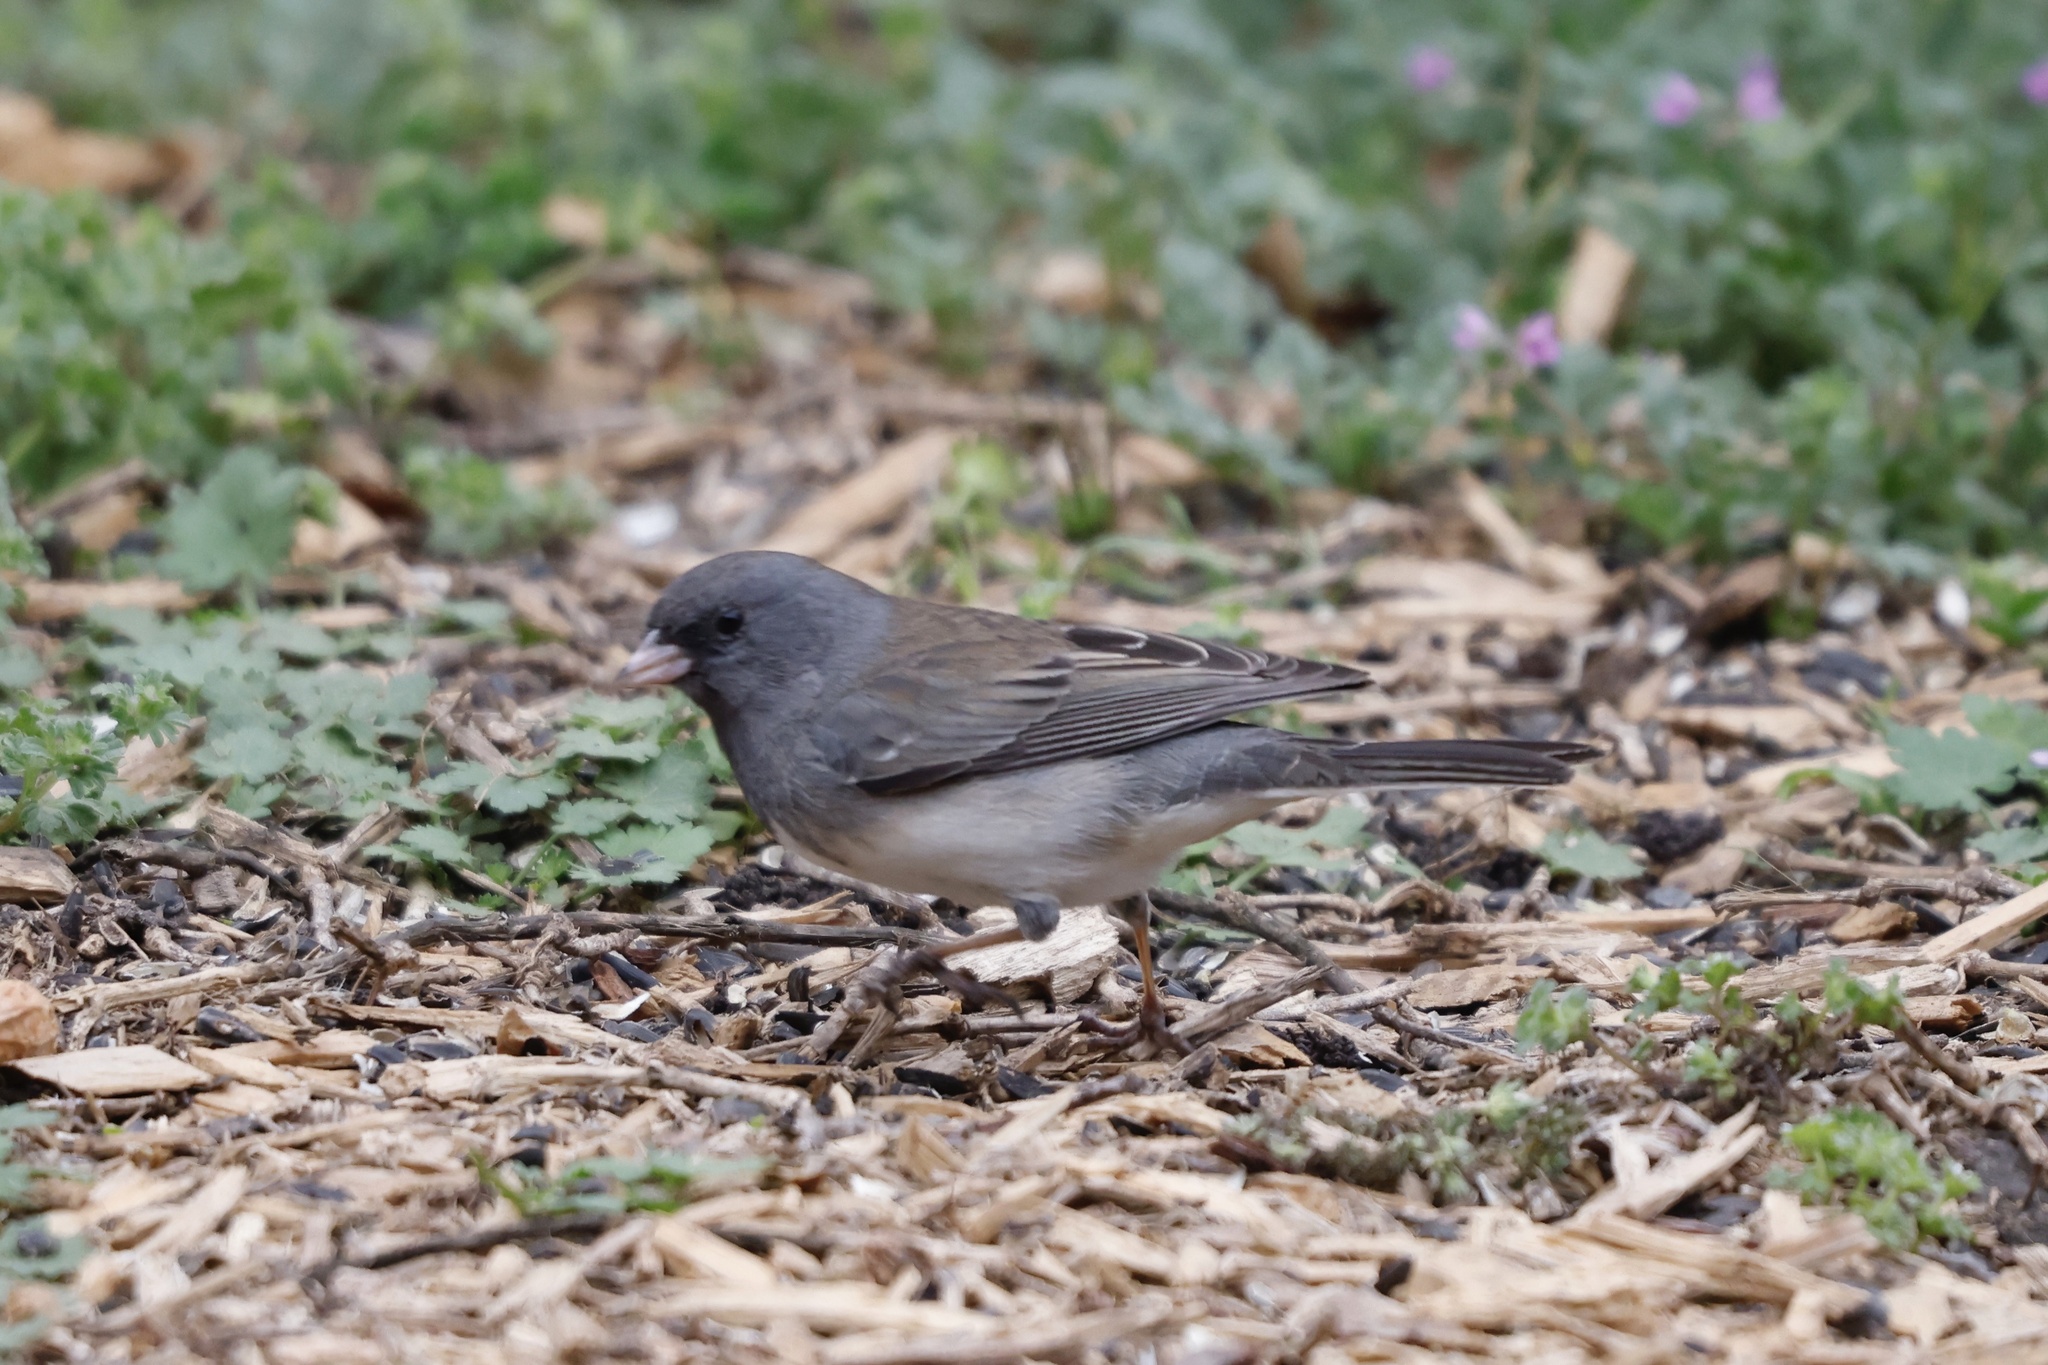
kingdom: Animalia
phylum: Chordata
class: Aves
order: Passeriformes
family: Passerellidae
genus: Junco
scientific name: Junco hyemalis
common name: Dark-eyed junco
